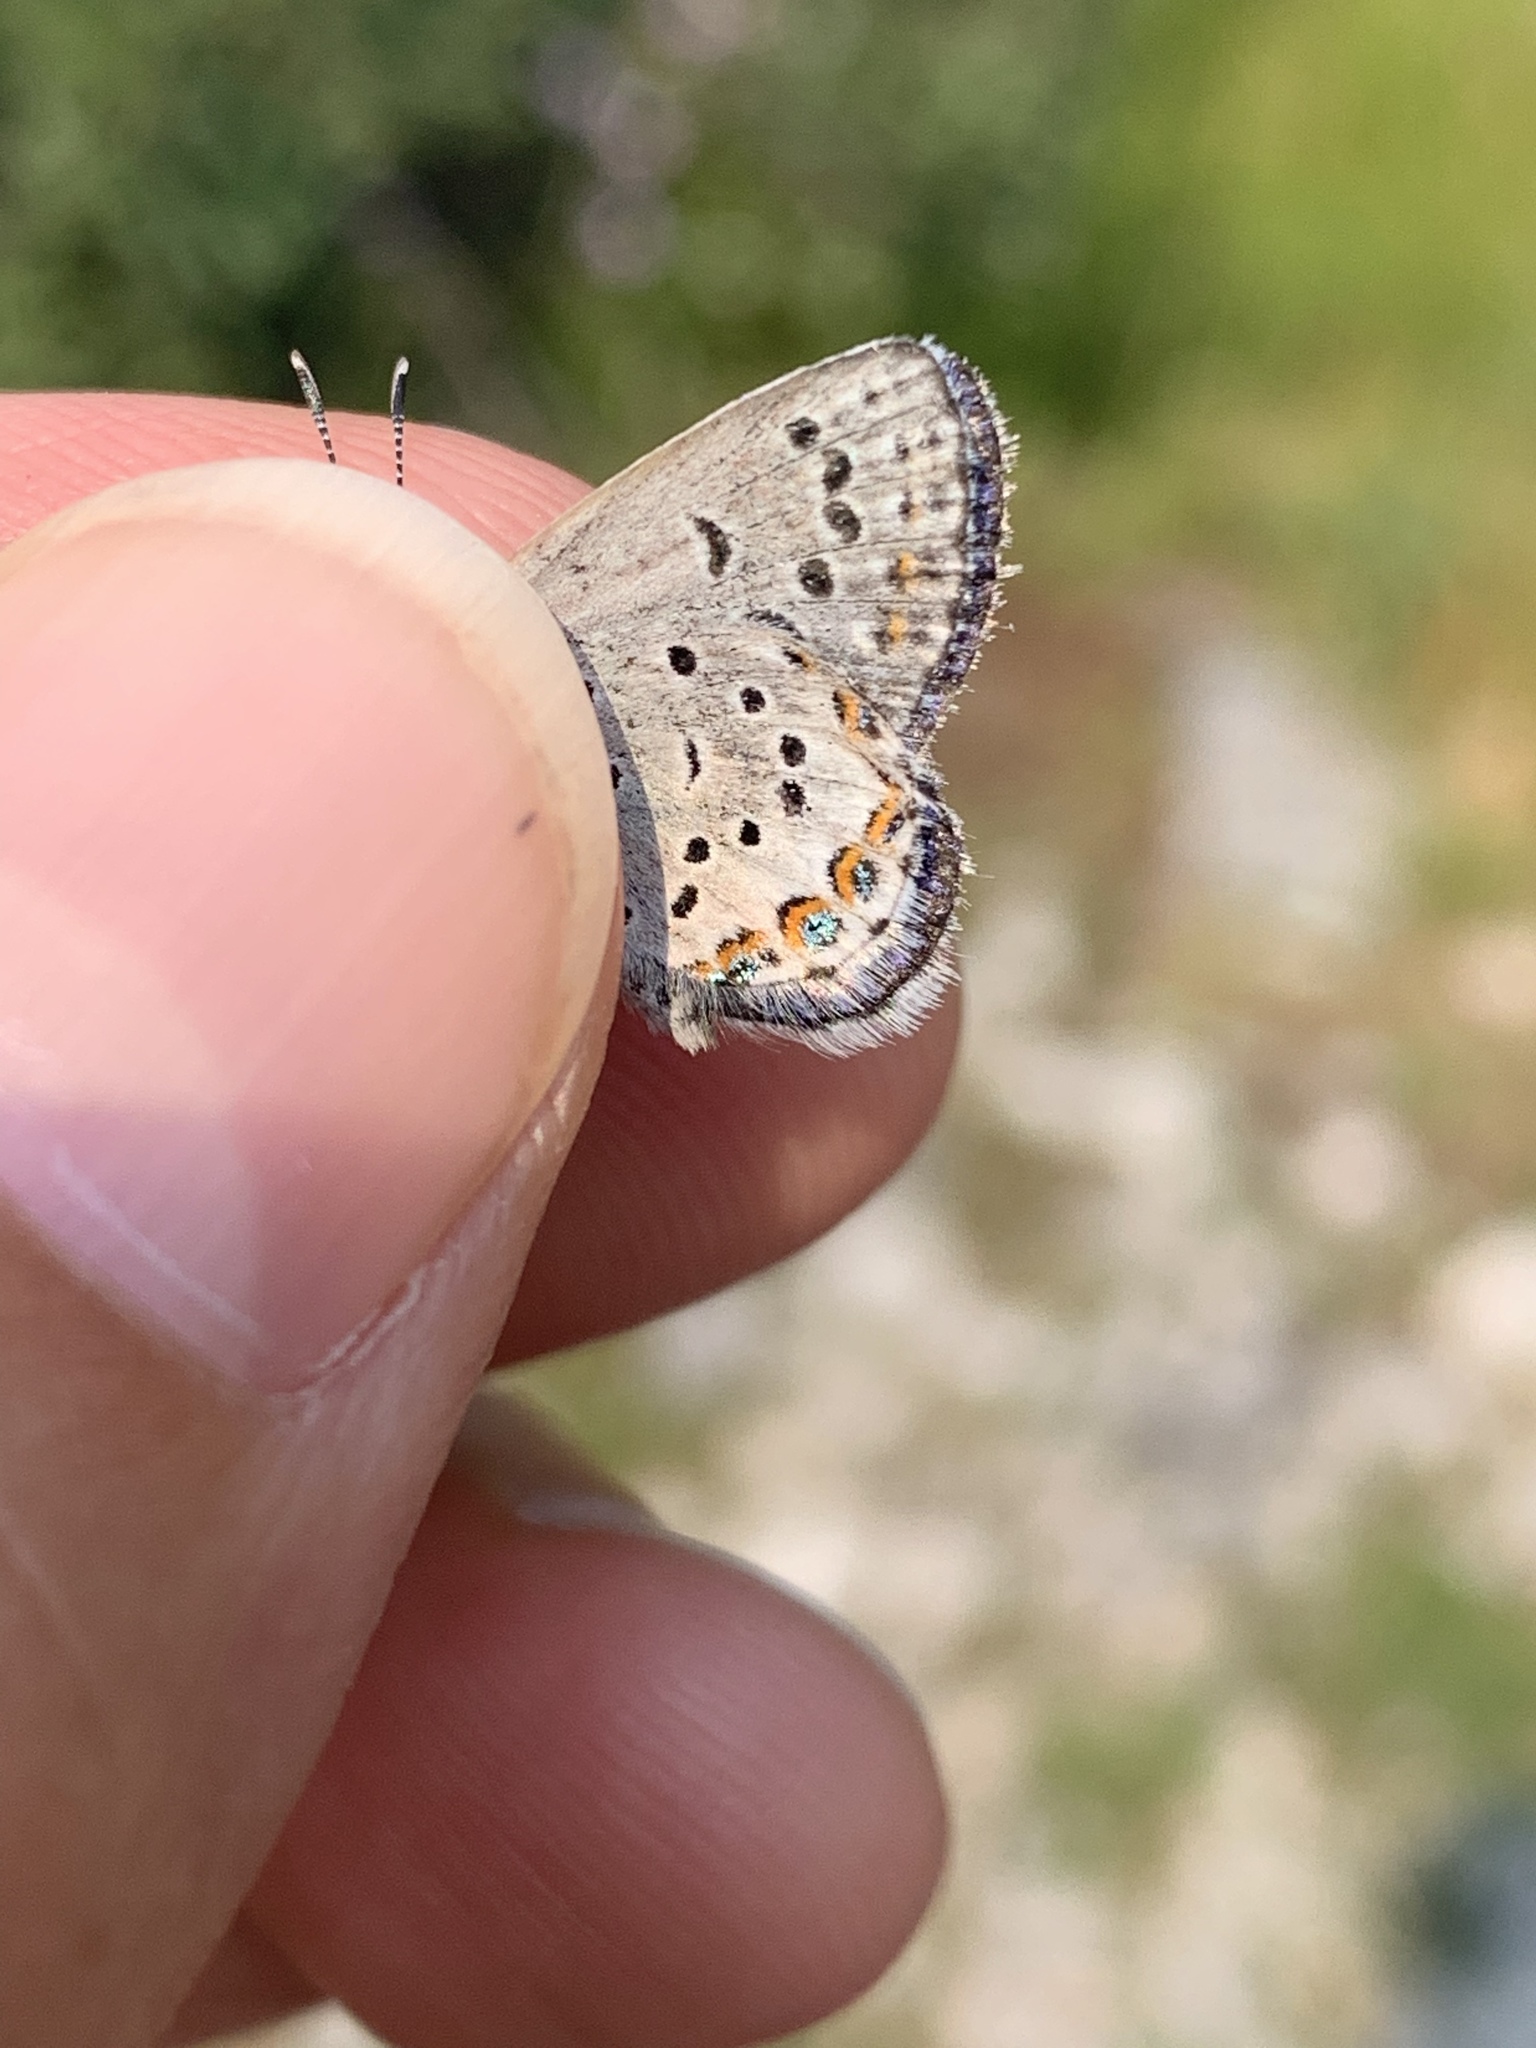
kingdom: Animalia
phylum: Arthropoda
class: Insecta
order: Lepidoptera
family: Lycaenidae
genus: Lycaeides
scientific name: Lycaeides idas
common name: Northern blue
